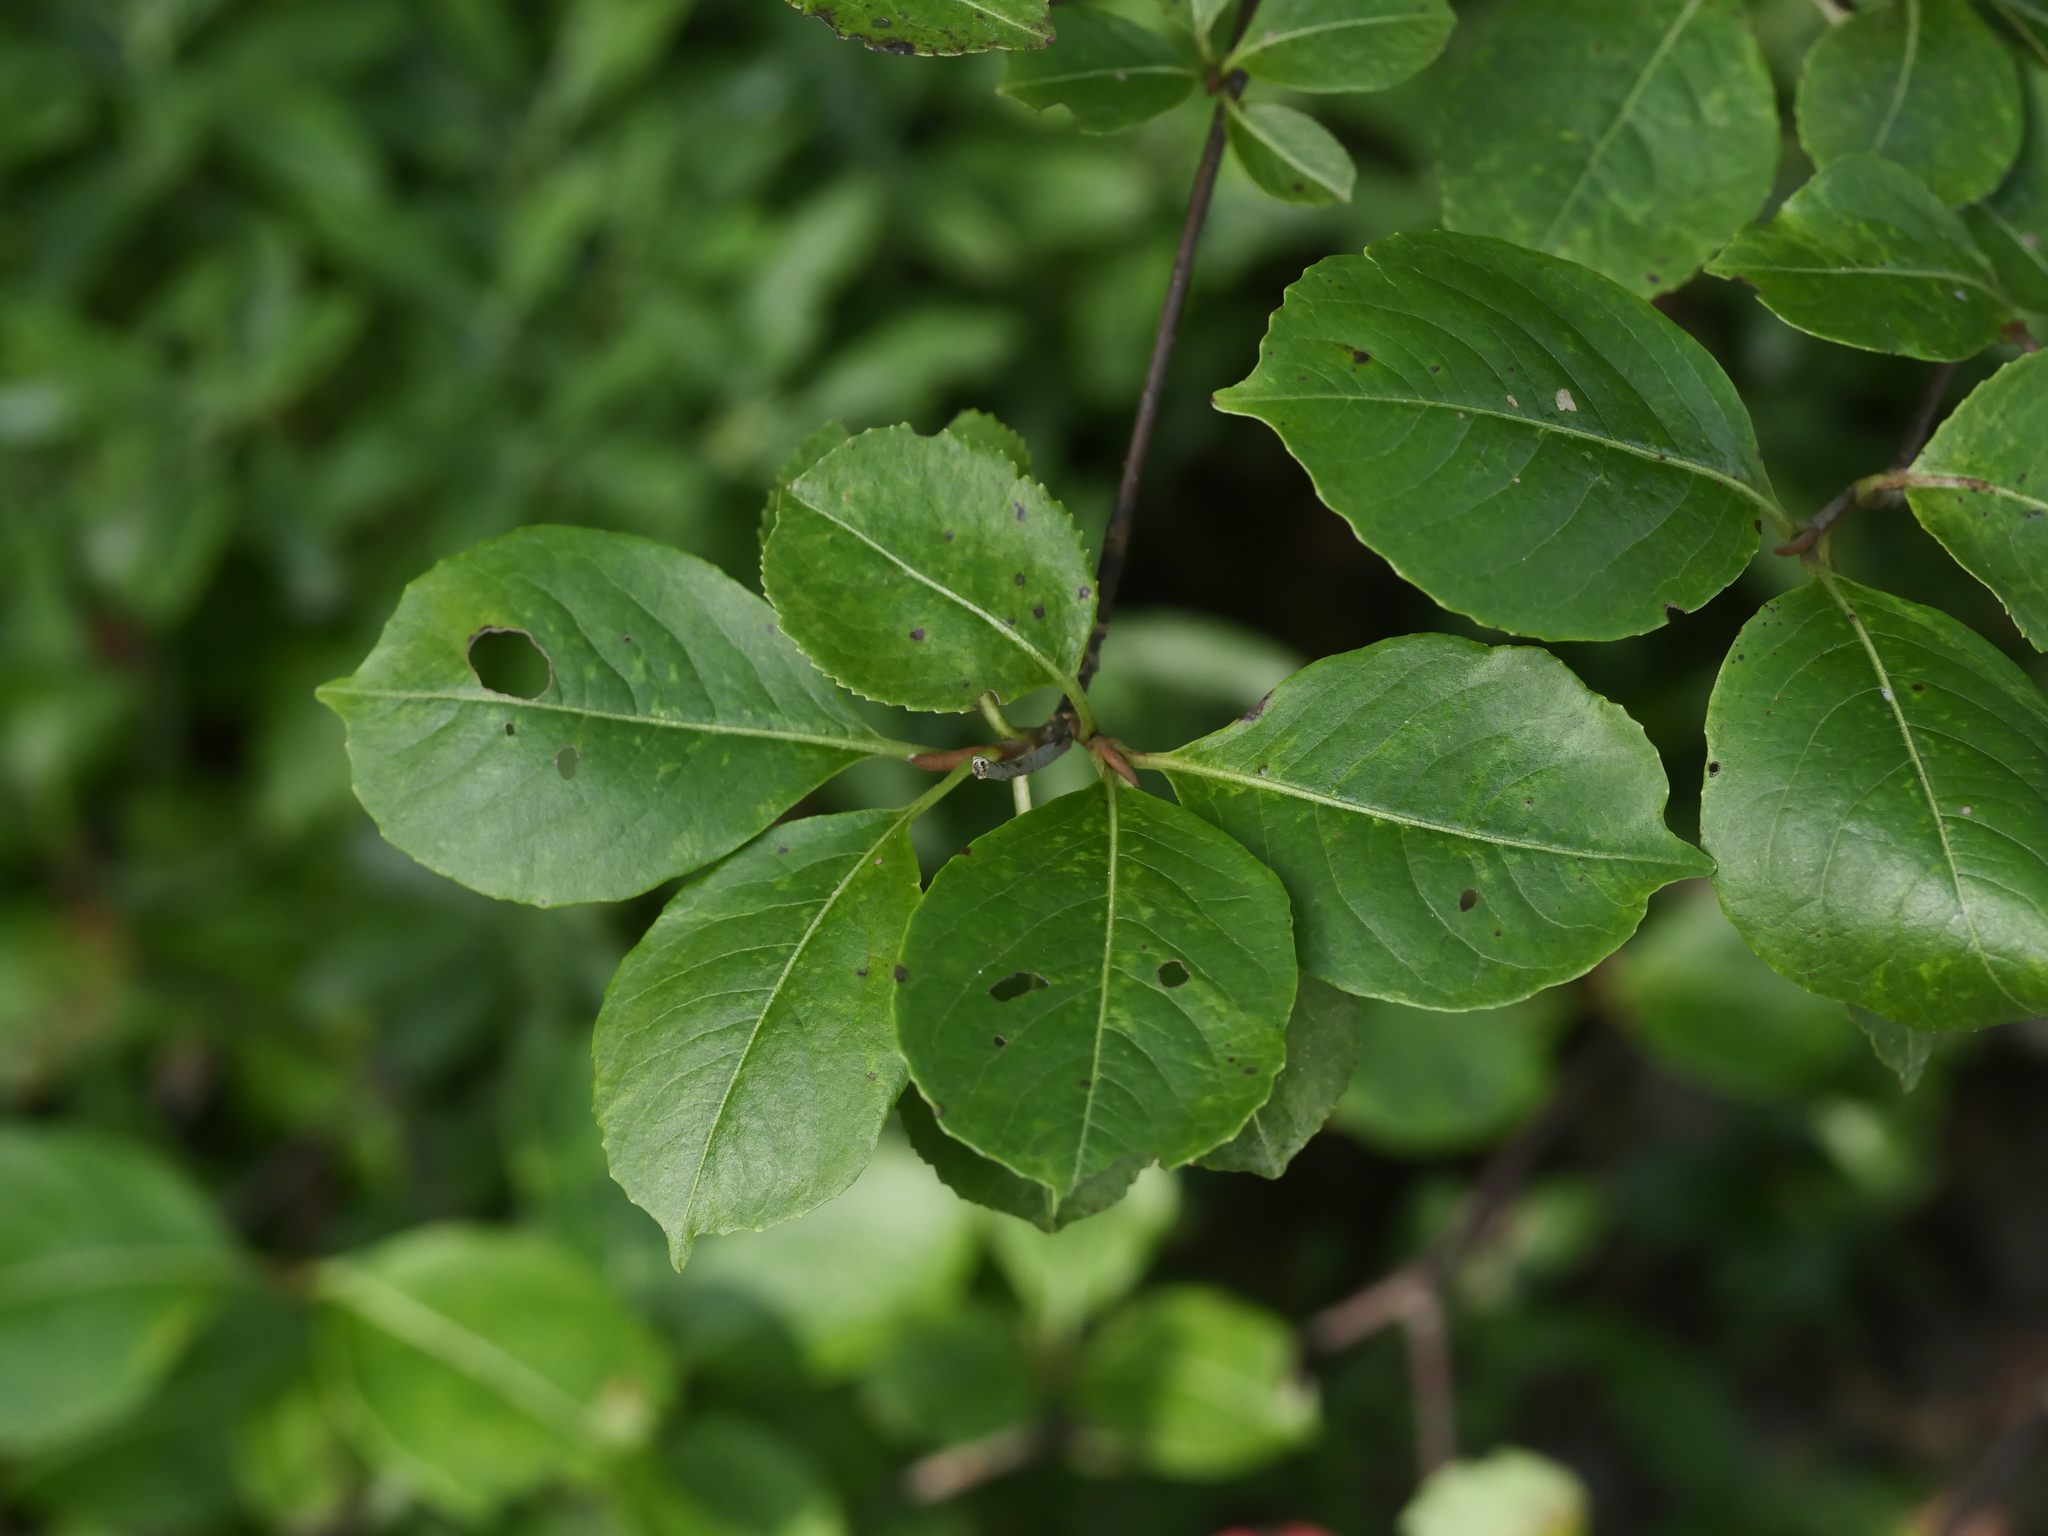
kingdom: Plantae
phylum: Tracheophyta
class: Magnoliopsida
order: Dipsacales
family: Viburnaceae
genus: Viburnum
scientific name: Viburnum cassinoides
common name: Swamp haw
